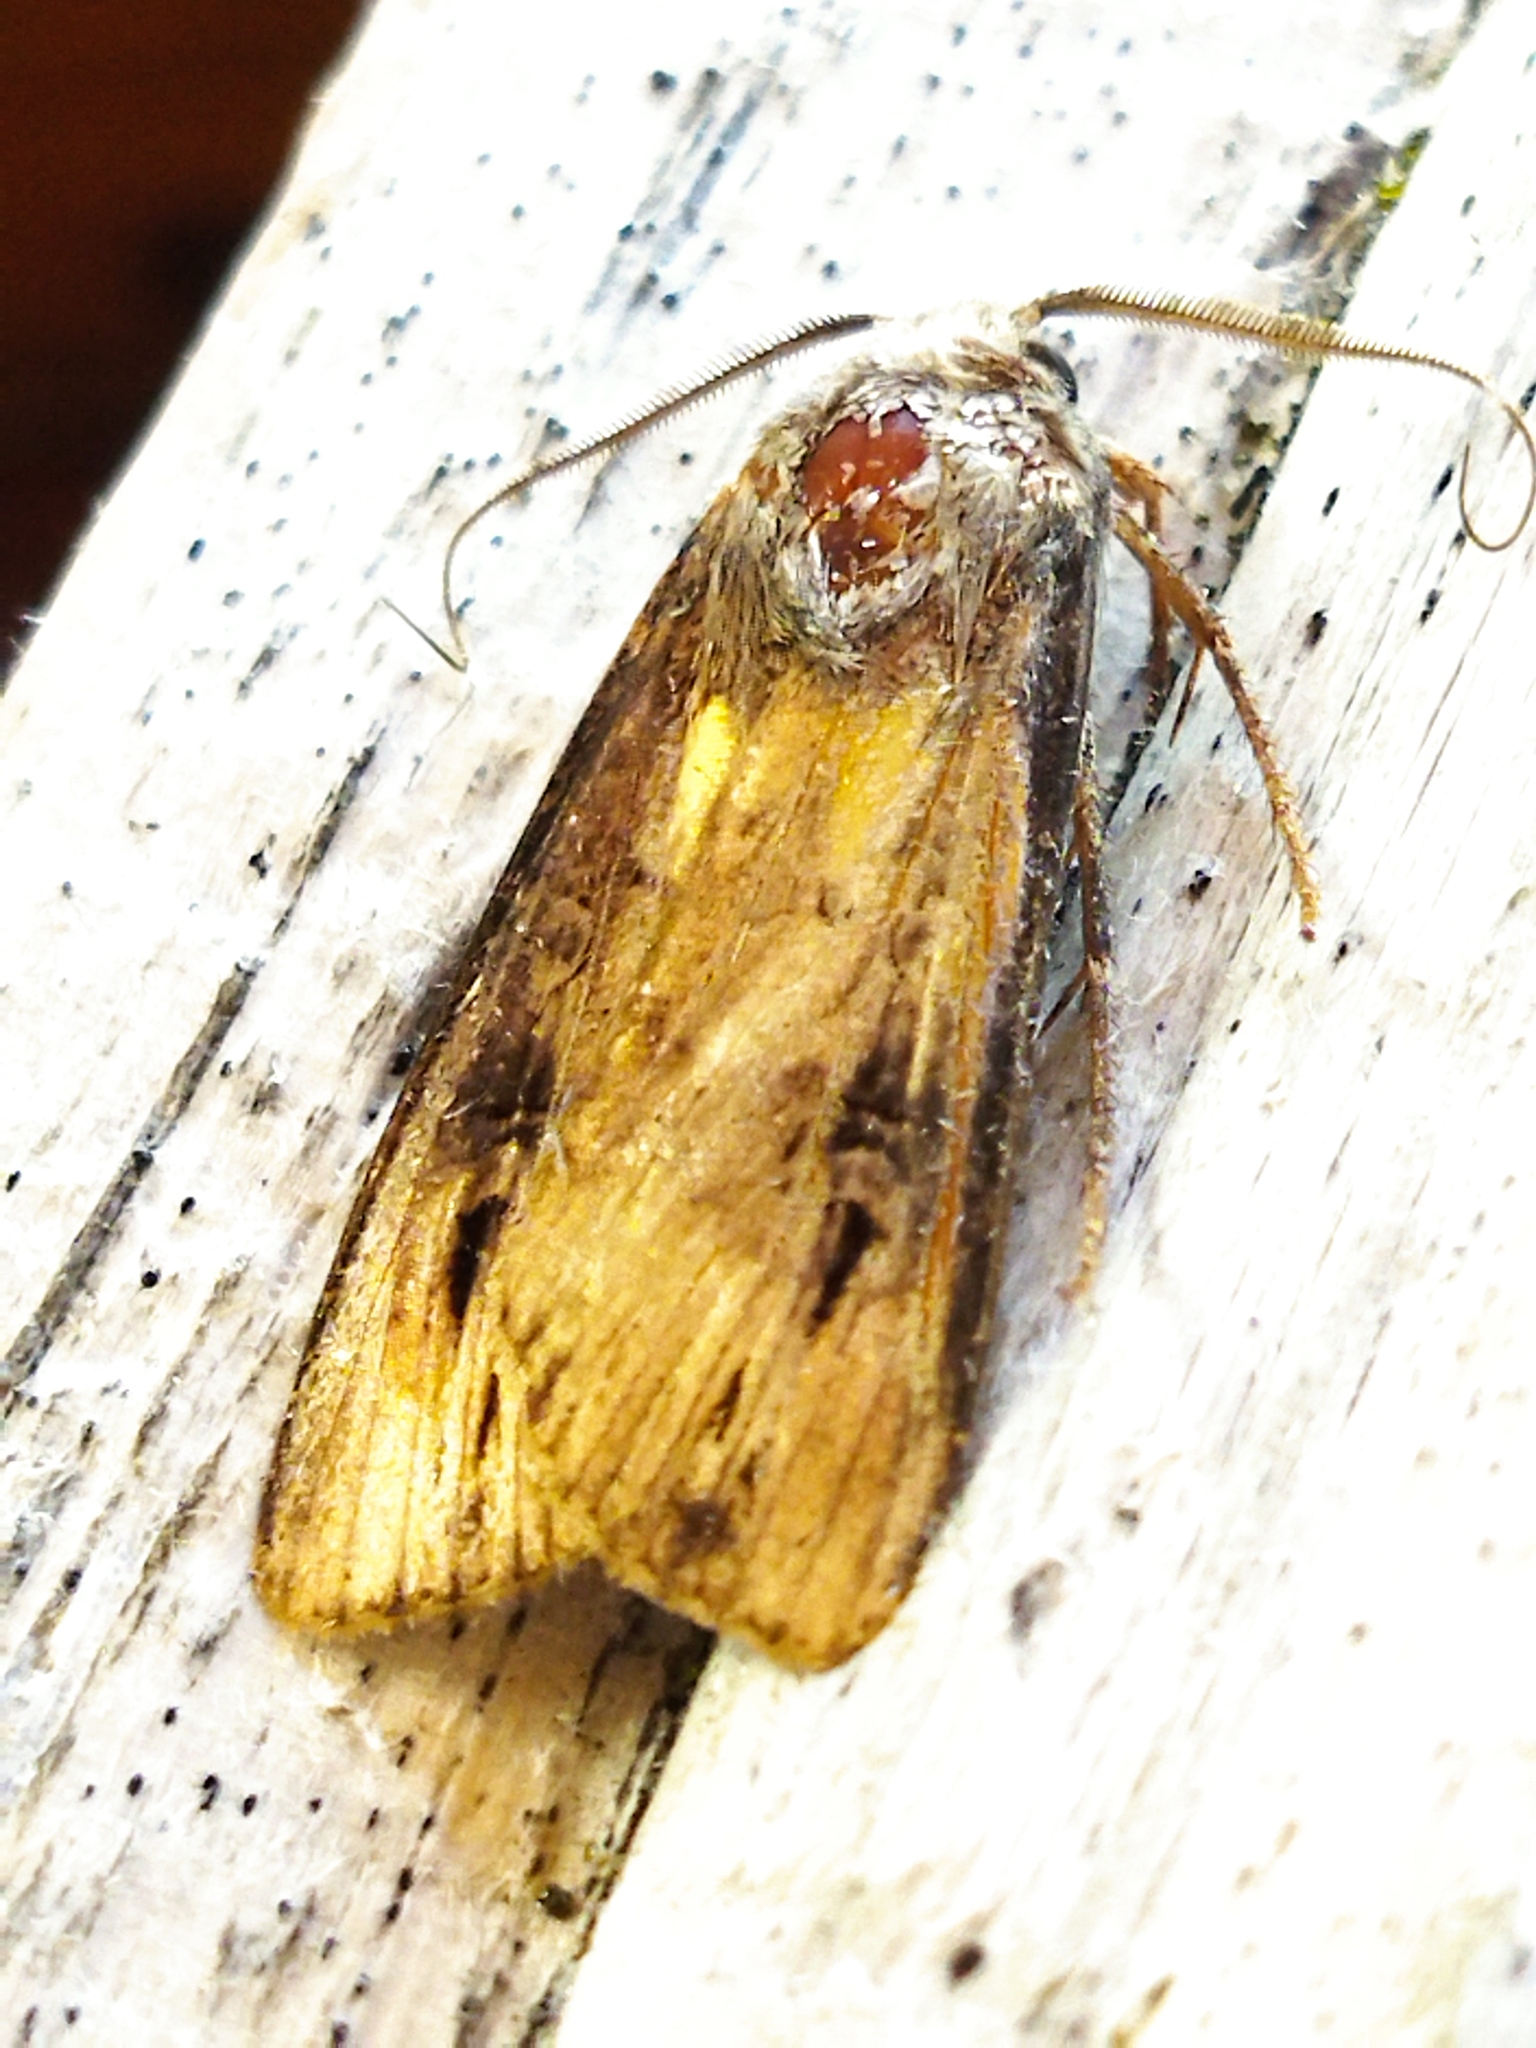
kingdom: Animalia
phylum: Arthropoda
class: Insecta
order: Lepidoptera
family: Noctuidae
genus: Agrotis
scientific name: Agrotis ipsilon
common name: Dark sword-grass
